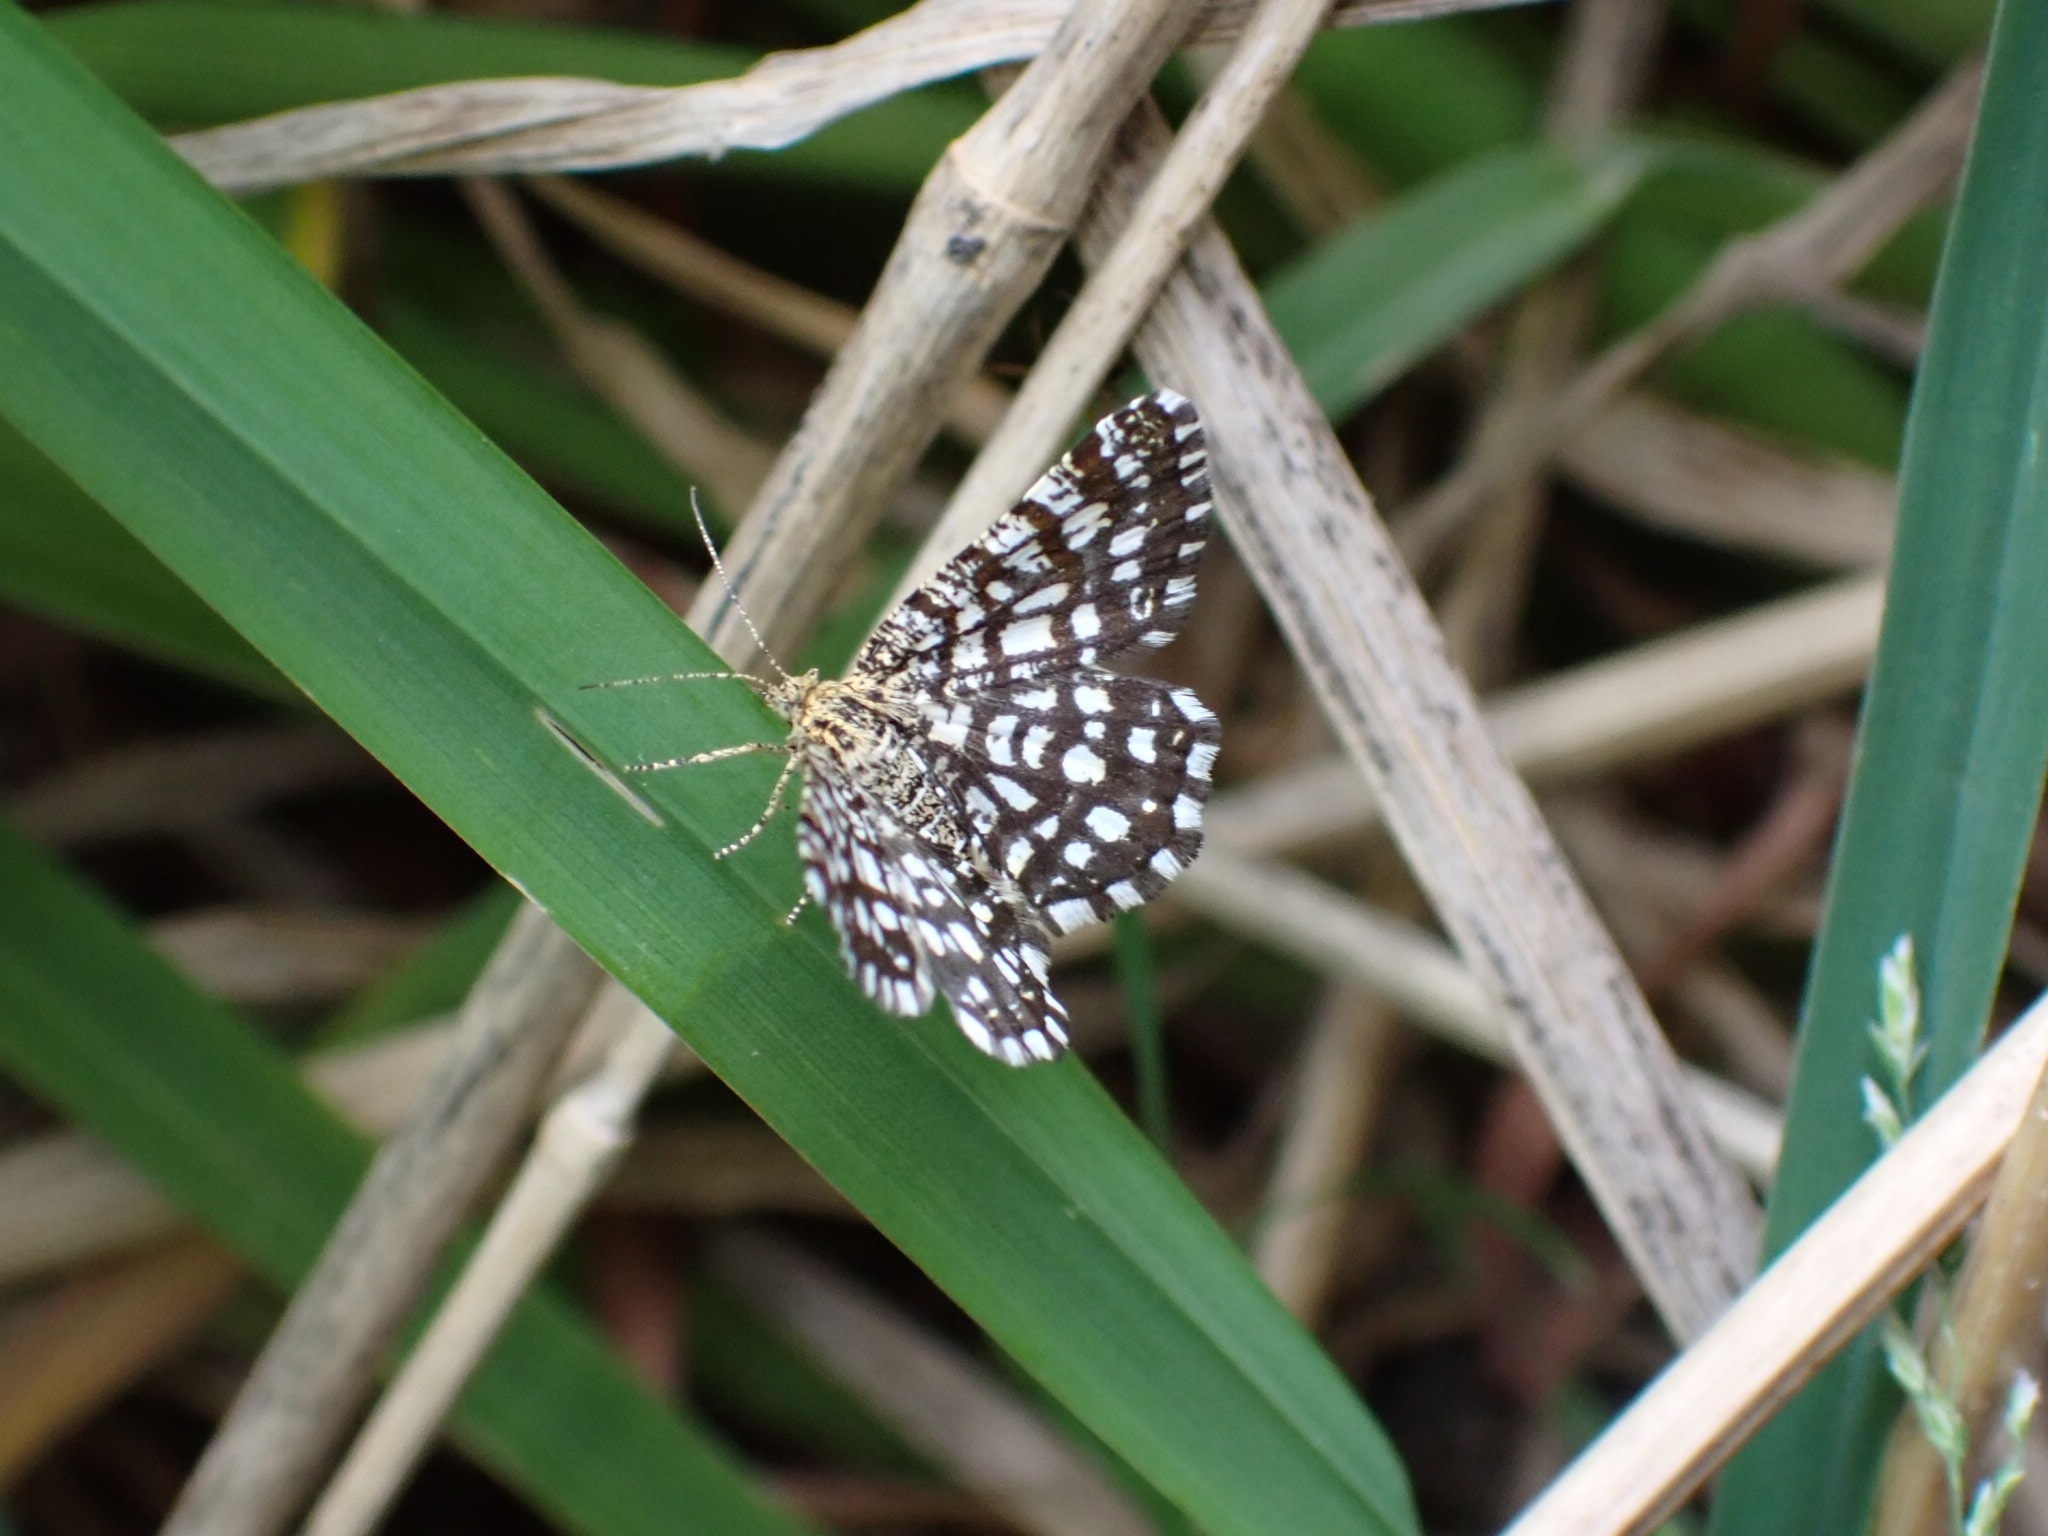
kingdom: Animalia
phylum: Arthropoda
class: Insecta
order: Lepidoptera
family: Geometridae
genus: Chiasmia
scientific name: Chiasmia clathrata
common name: Latticed heath
